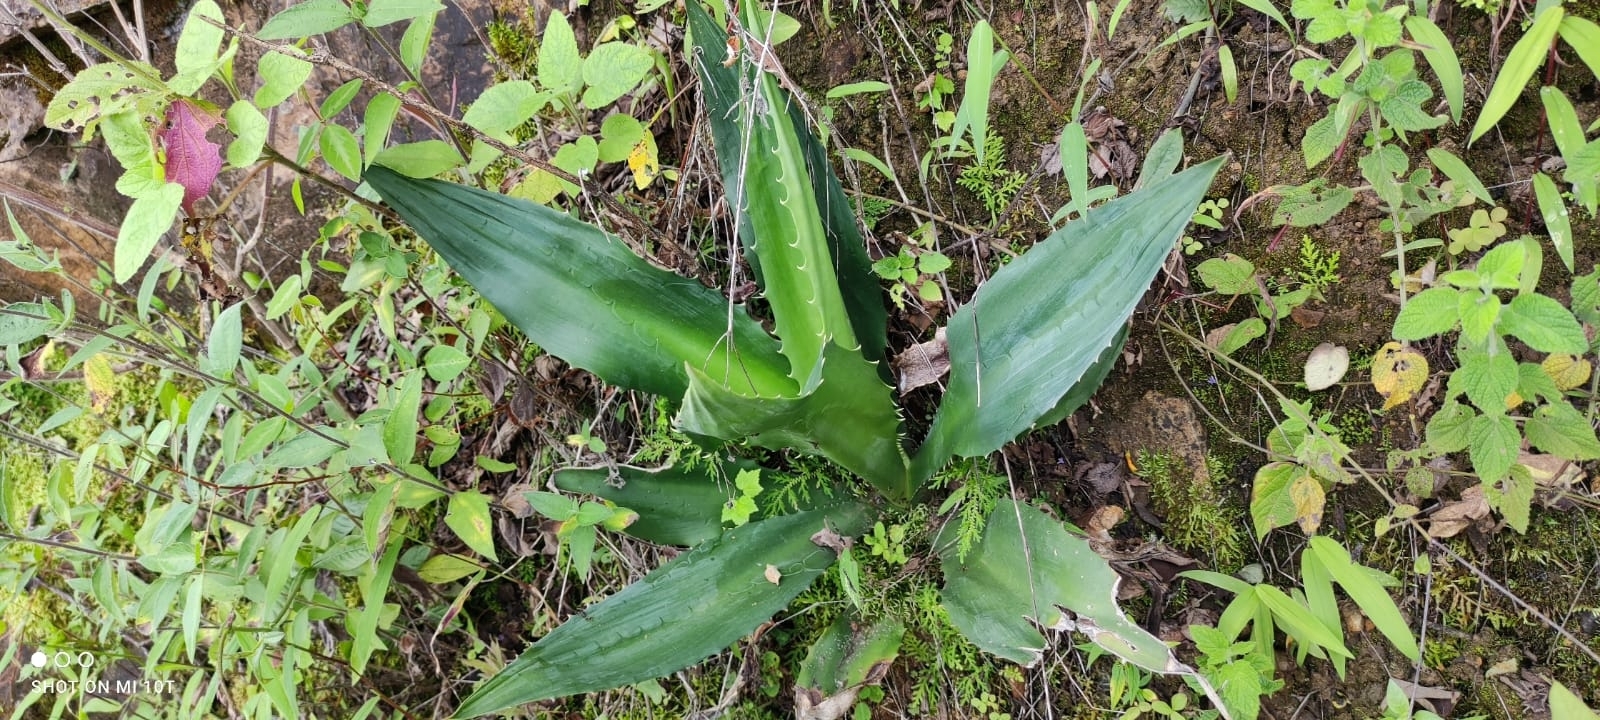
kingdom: Plantae
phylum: Tracheophyta
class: Liliopsida
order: Asparagales
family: Asparagaceae
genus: Furcraea
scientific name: Furcraea andina
